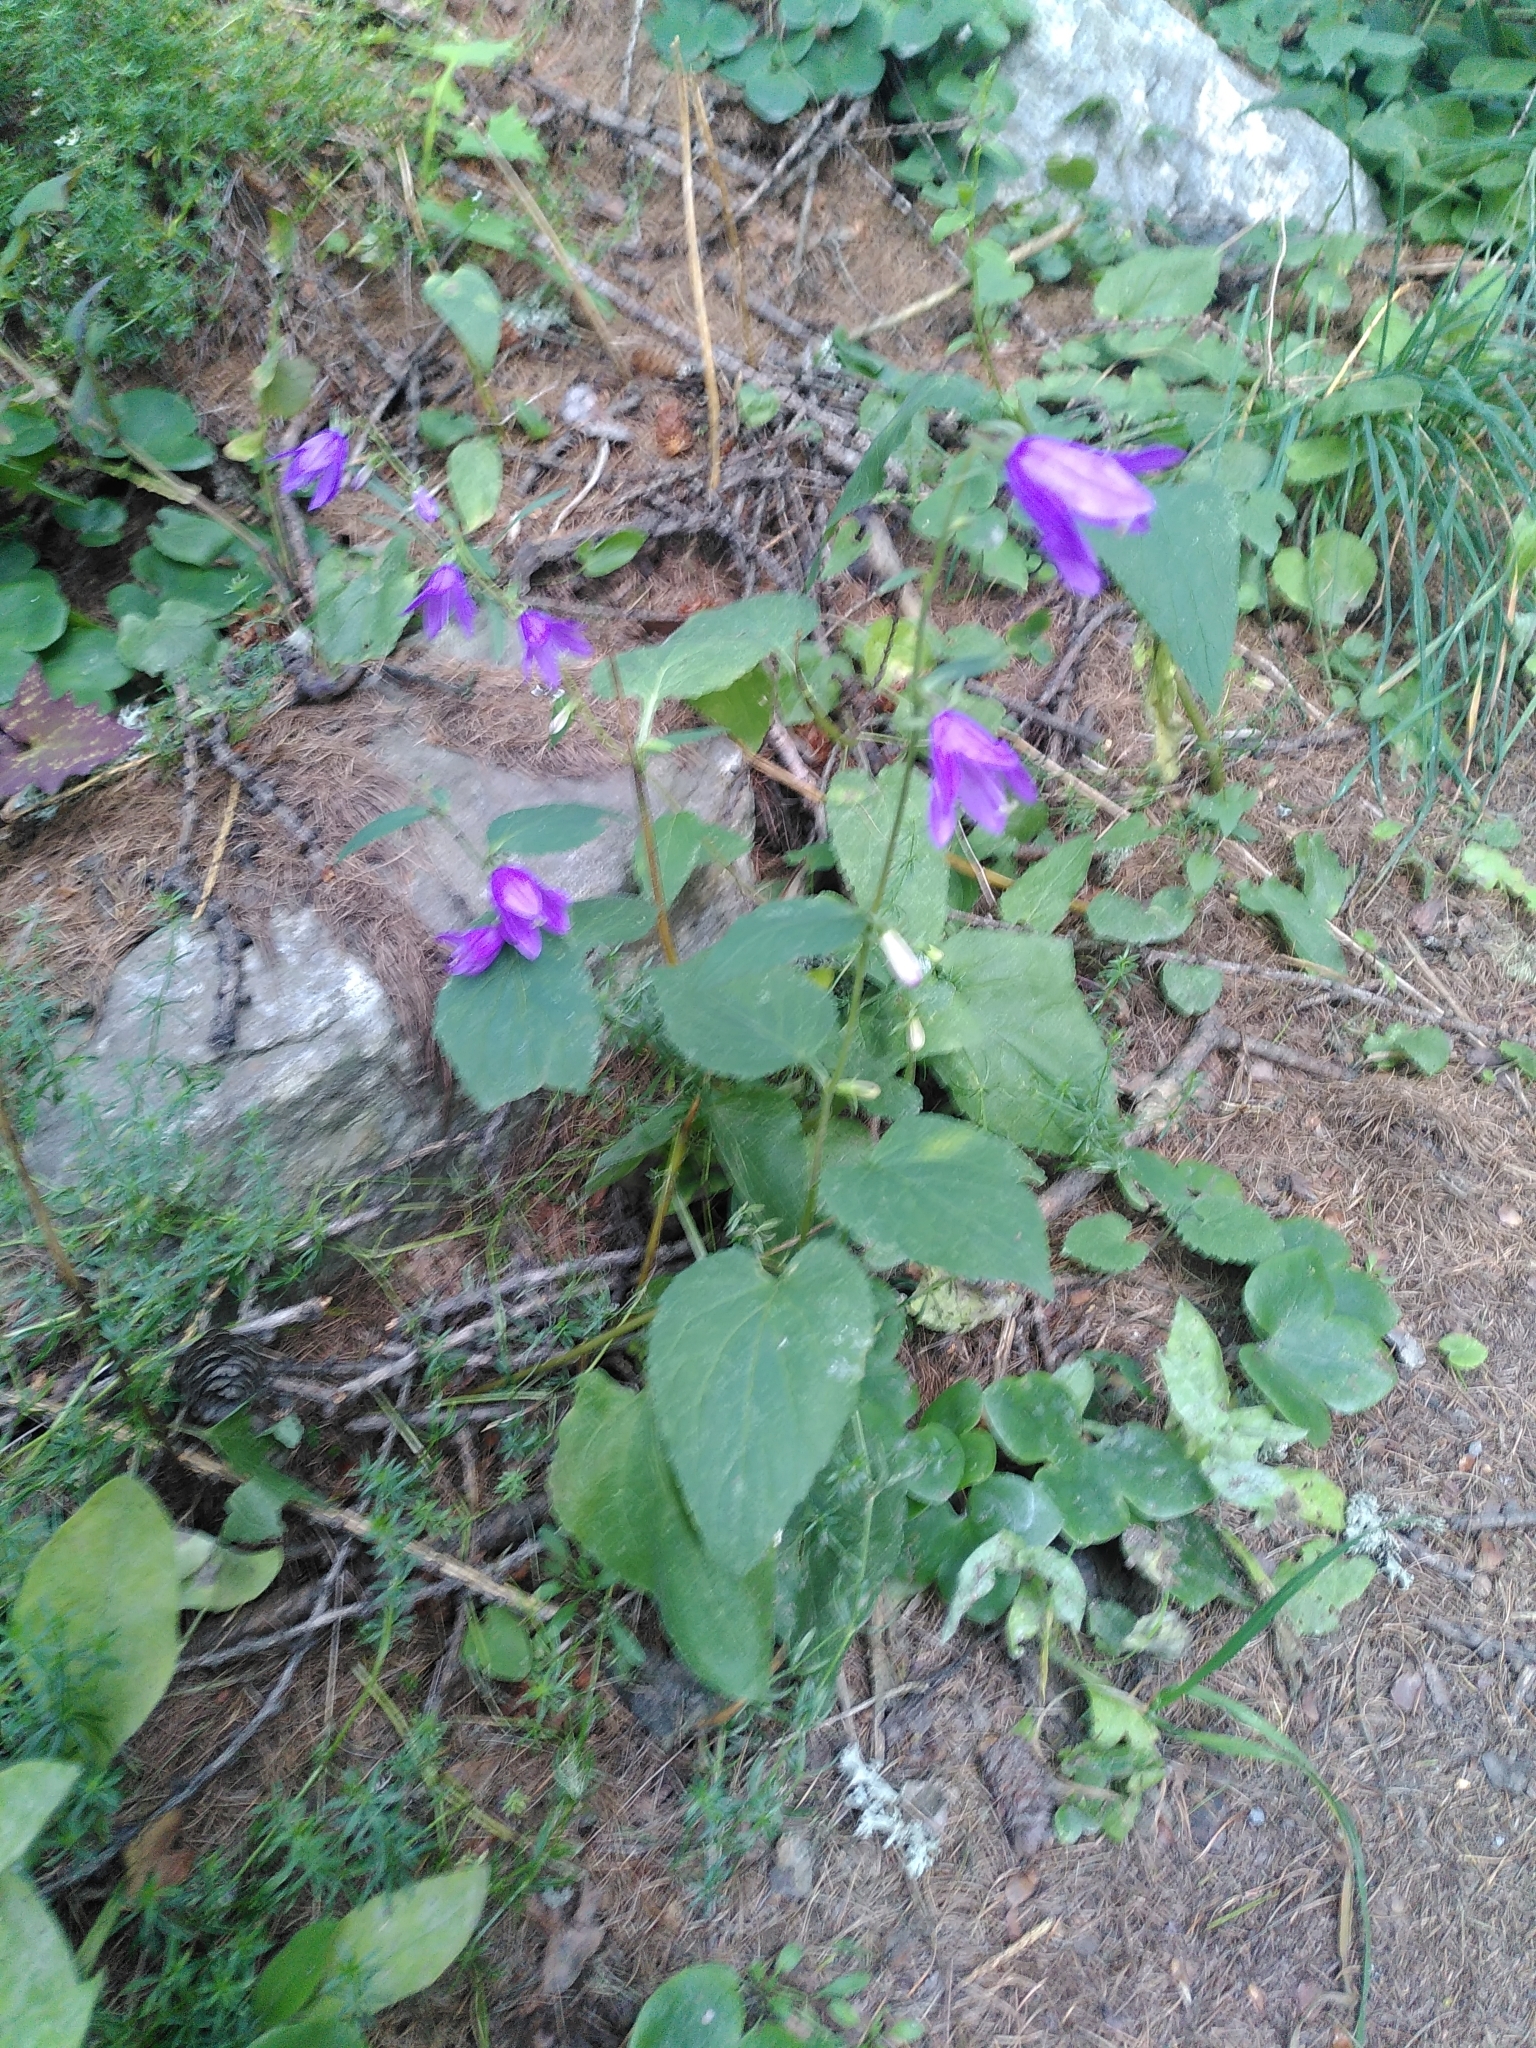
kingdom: Plantae
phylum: Tracheophyta
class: Magnoliopsida
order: Asterales
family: Campanulaceae
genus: Campanula
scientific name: Campanula rapunculoides
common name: Creeping bellflower
